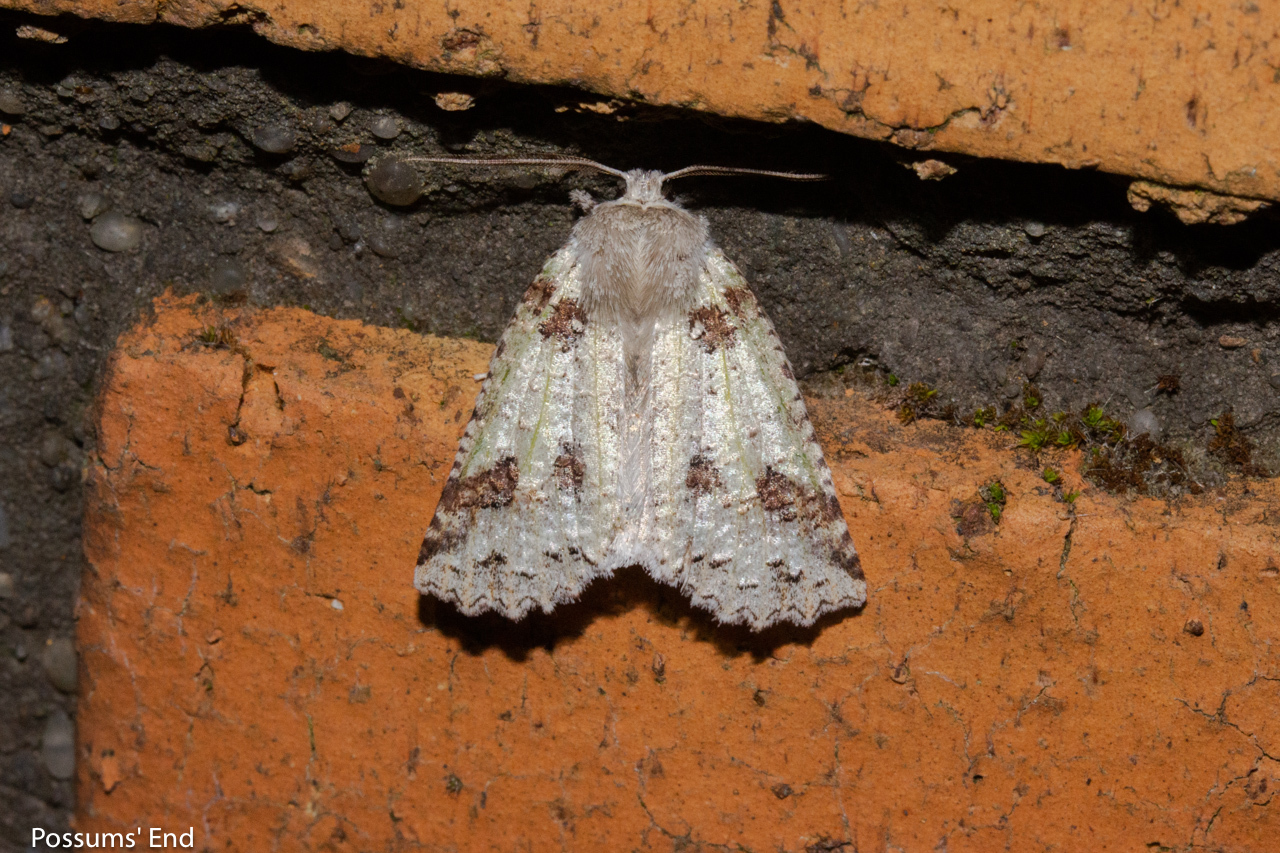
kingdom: Animalia
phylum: Arthropoda
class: Insecta
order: Lepidoptera
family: Geometridae
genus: Declana
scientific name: Declana floccosa
